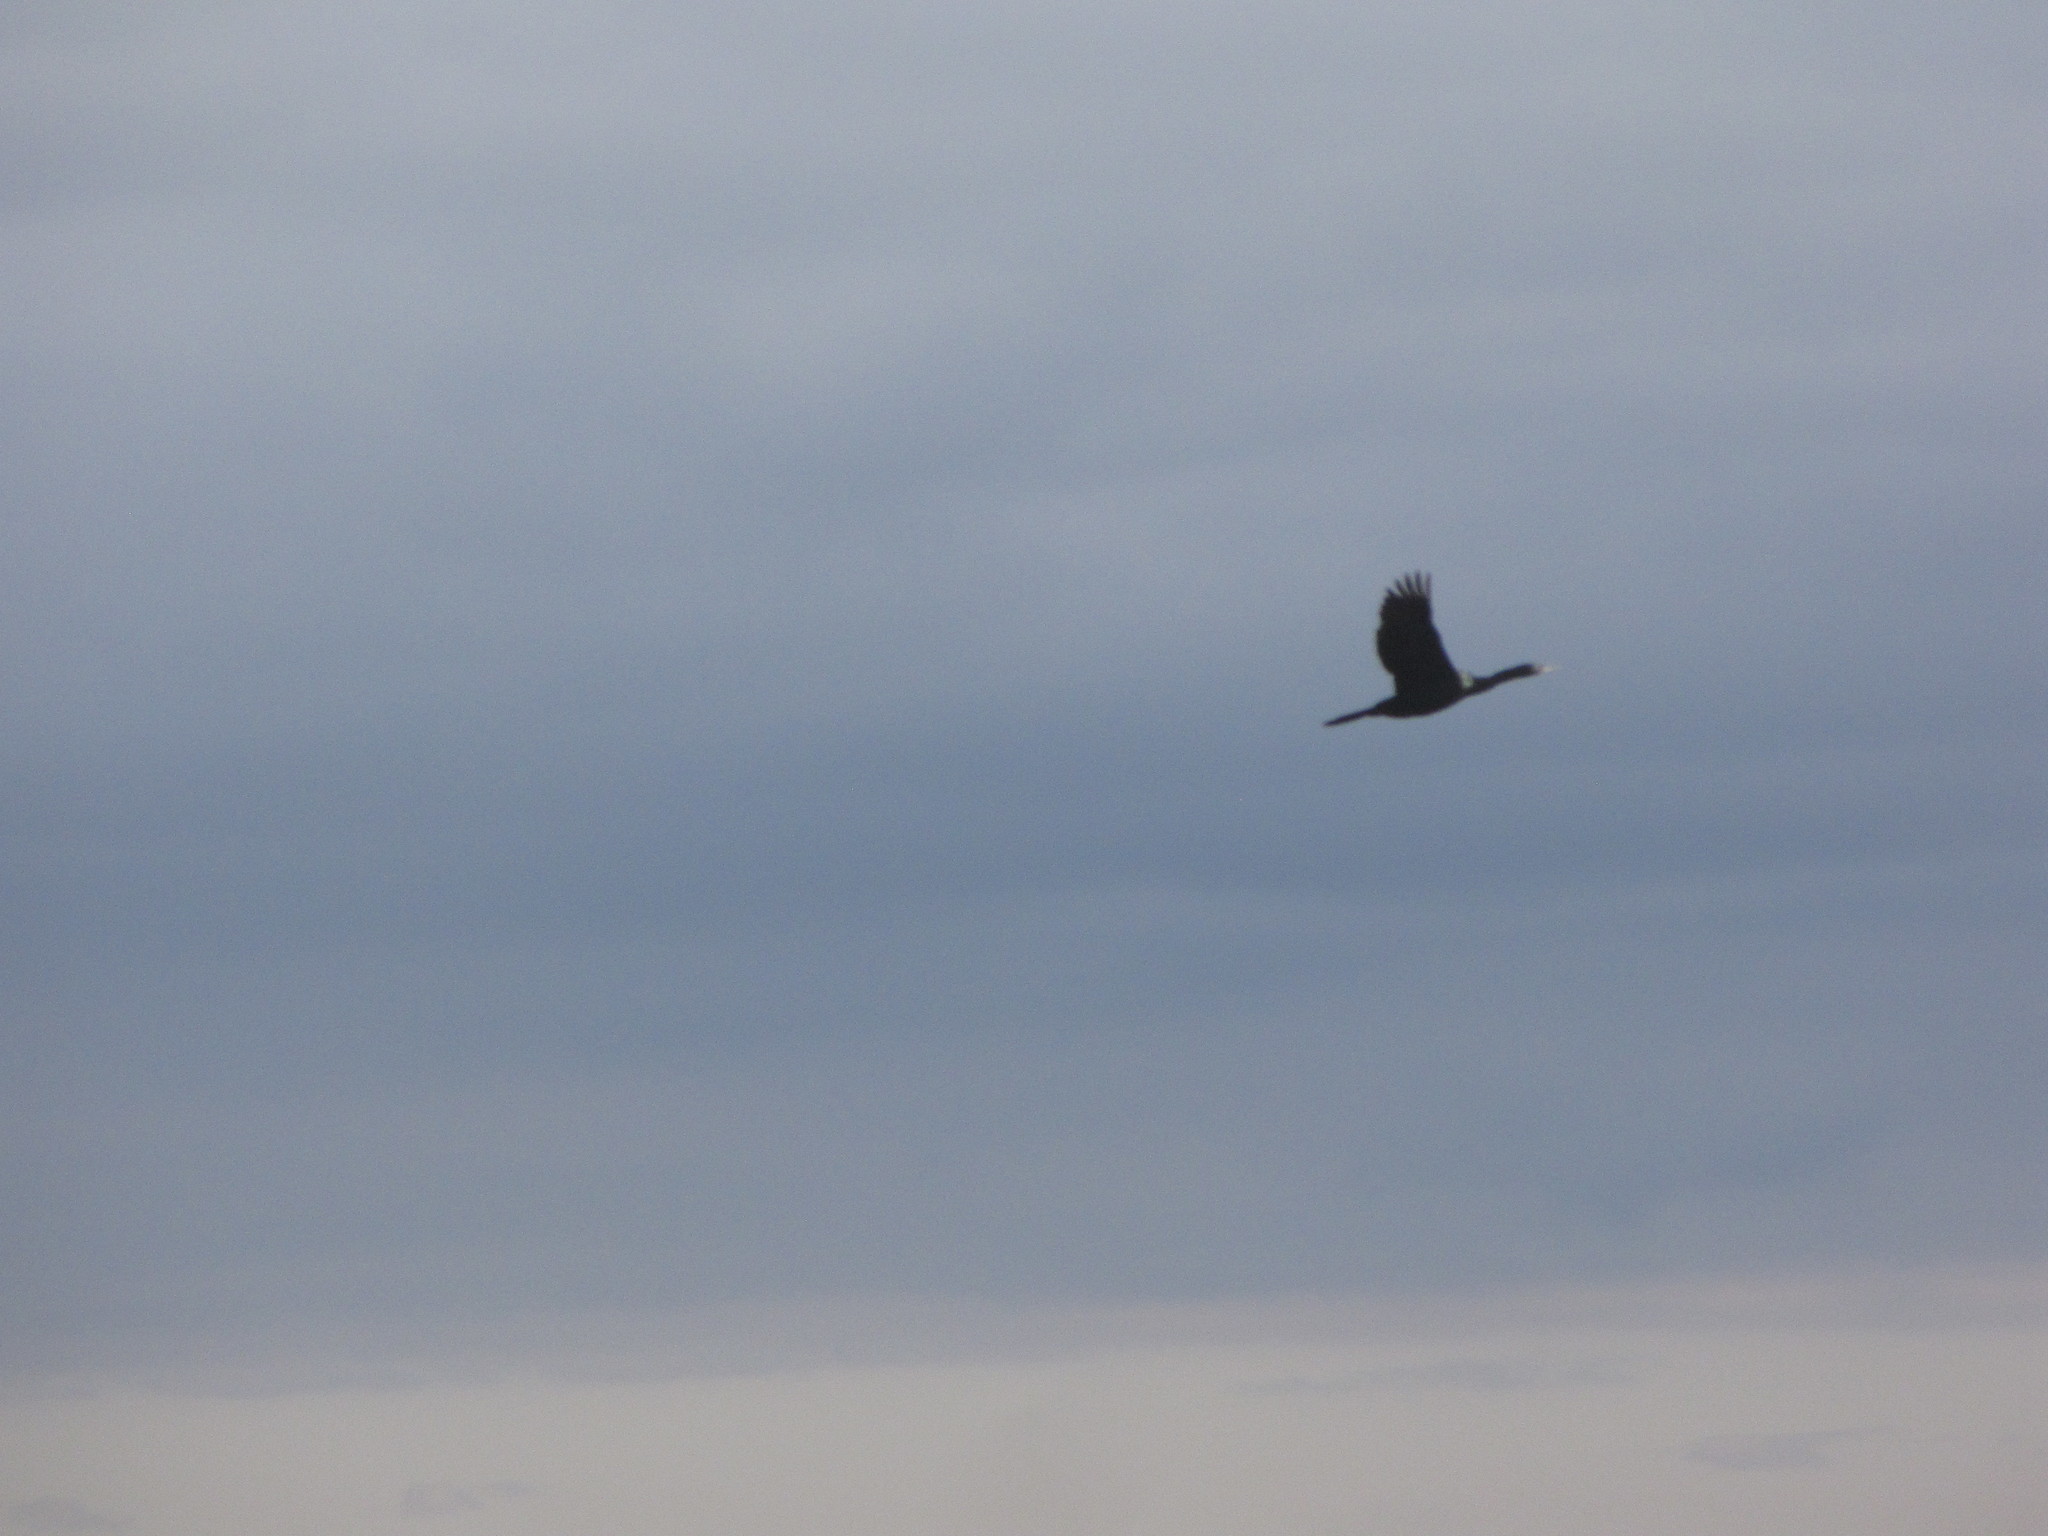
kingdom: Animalia
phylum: Chordata
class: Aves
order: Suliformes
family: Phalacrocoracidae
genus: Phalacrocorax
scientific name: Phalacrocorax pelagicus
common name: Pelagic cormorant
